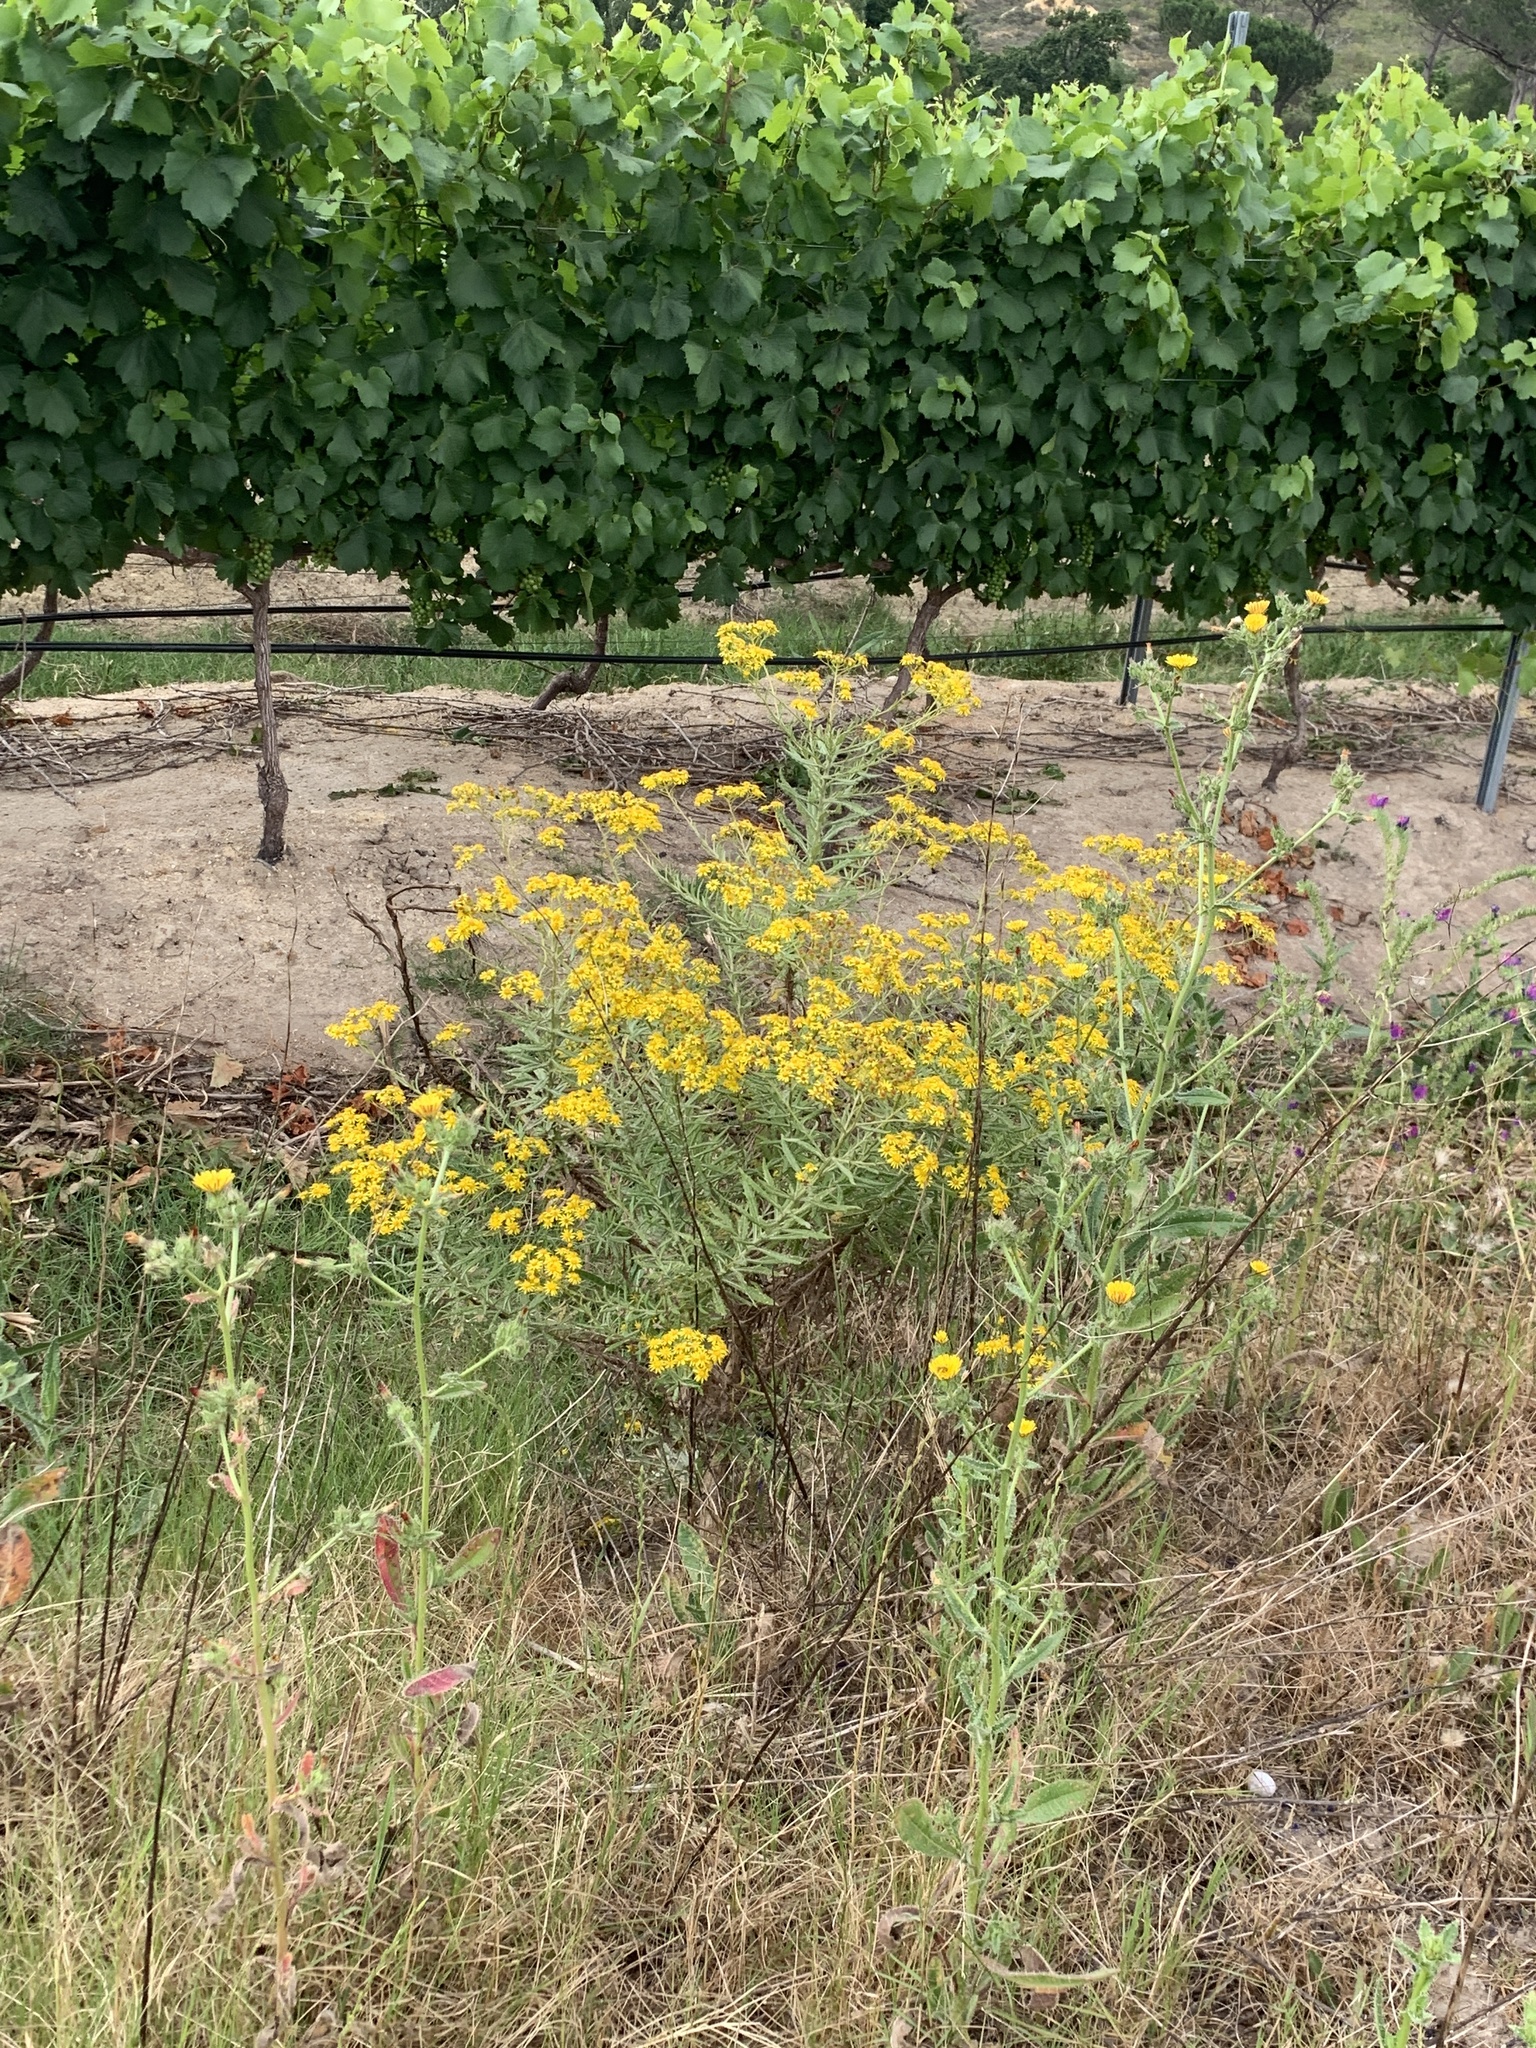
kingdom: Plantae
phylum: Tracheophyta
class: Magnoliopsida
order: Asterales
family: Asteraceae
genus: Senecio
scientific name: Senecio pterophorus
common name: Shoddy ragwort
